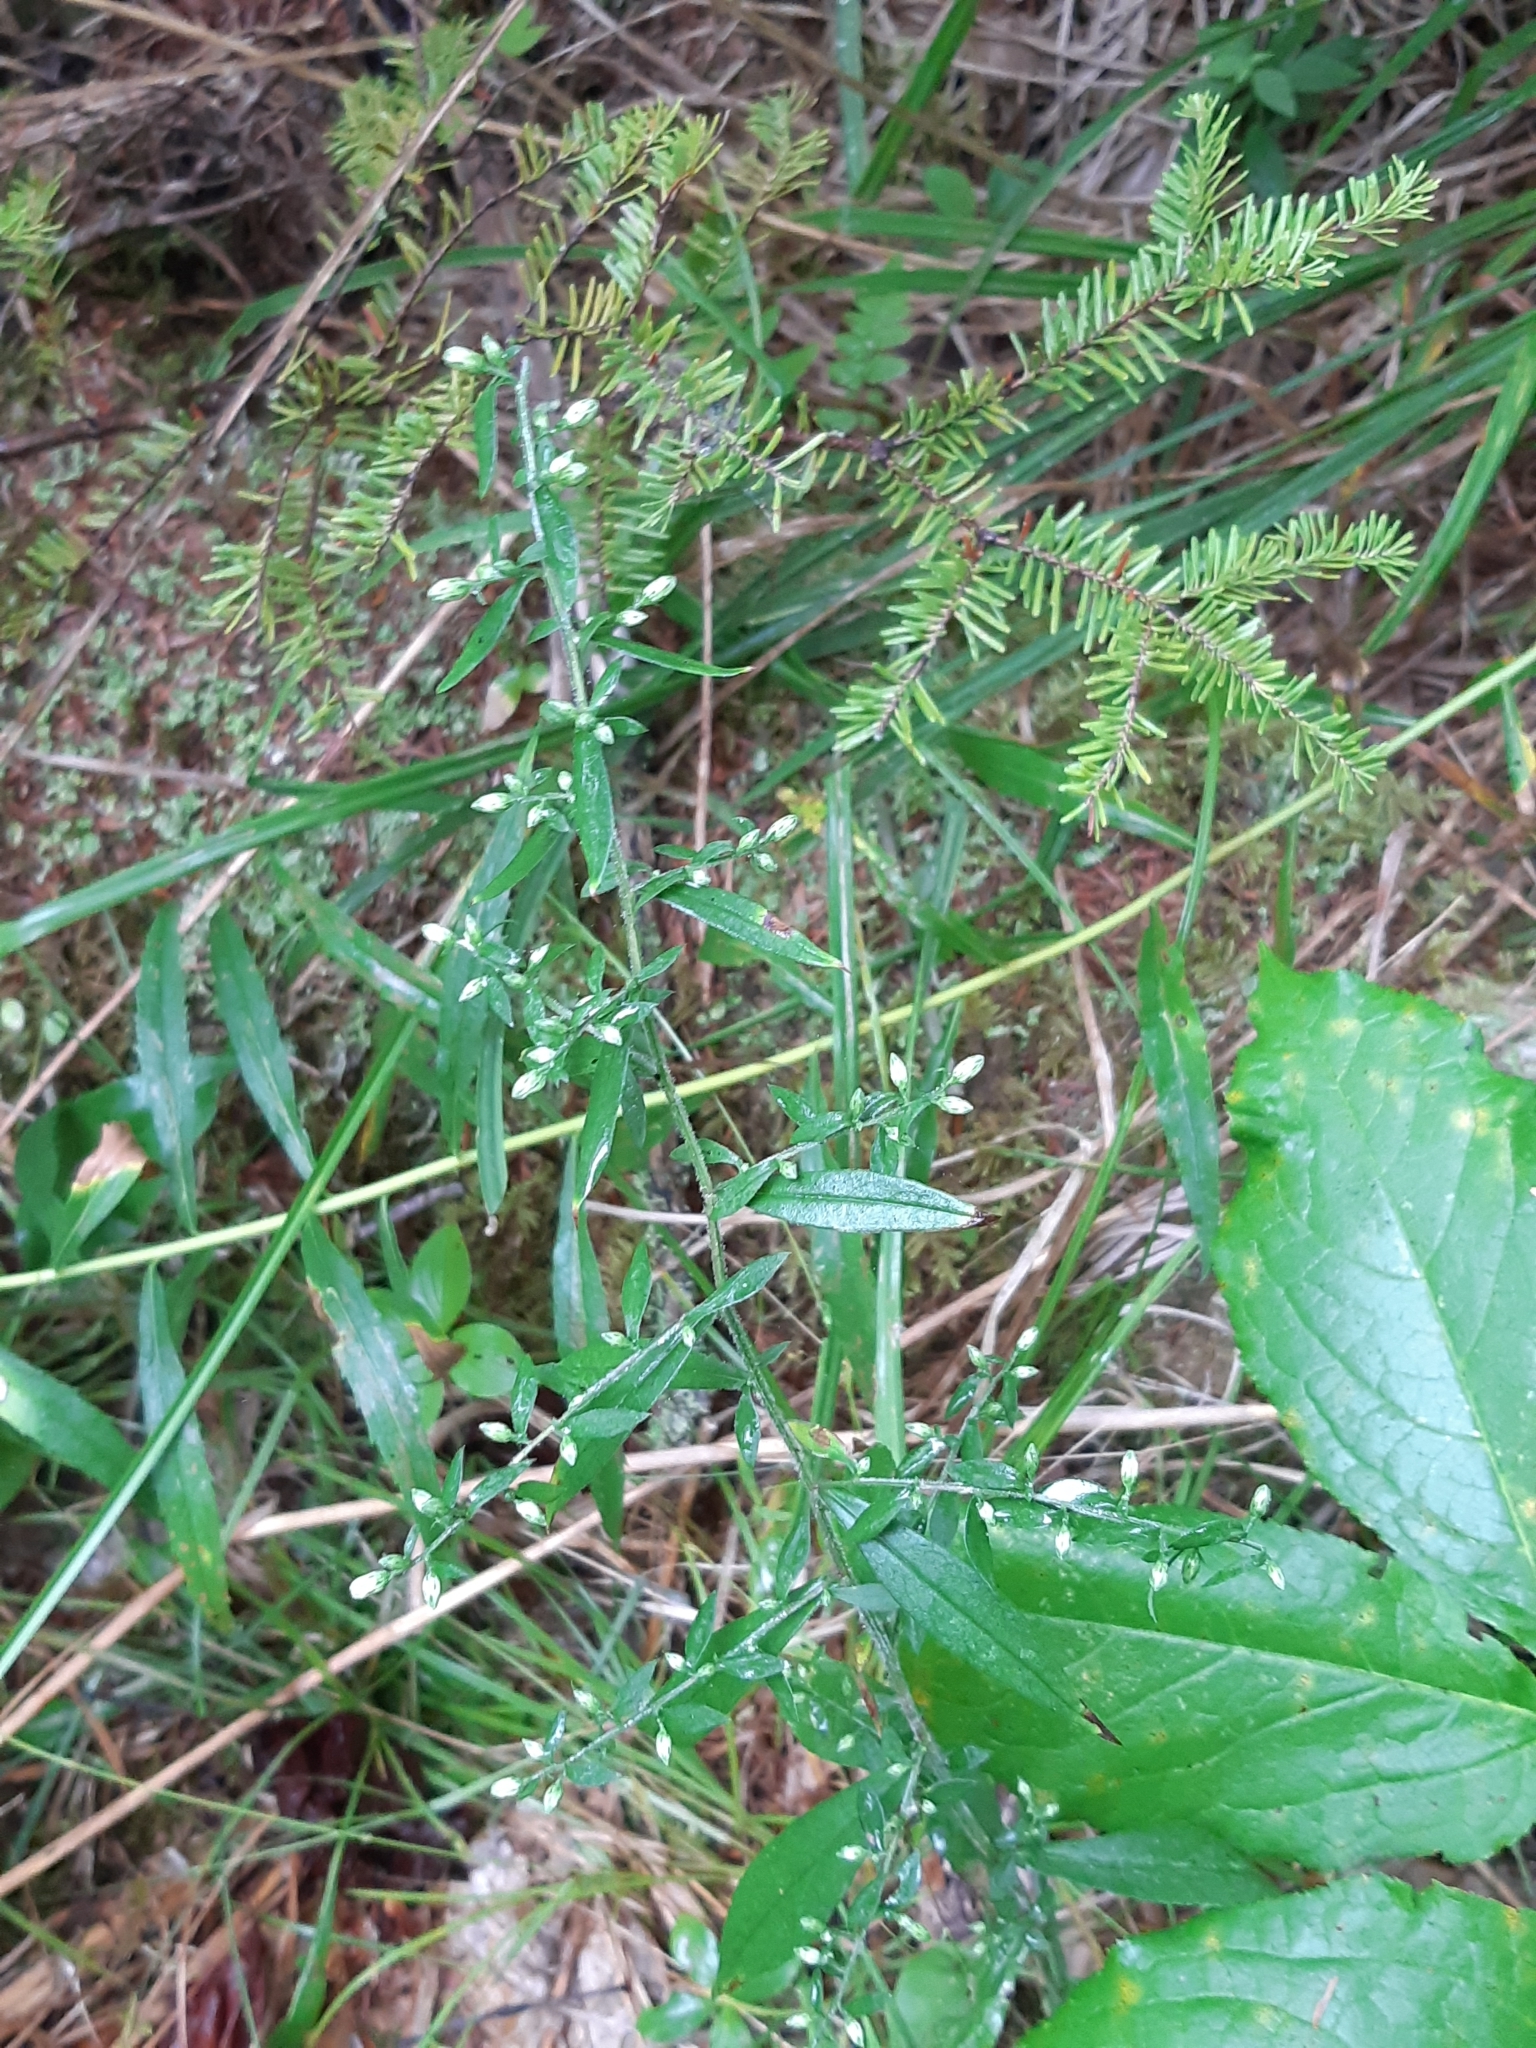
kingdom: Plantae
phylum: Tracheophyta
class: Magnoliopsida
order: Asterales
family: Asteraceae
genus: Symphyotrichum
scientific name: Symphyotrichum lateriflorum
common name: Calico aster
